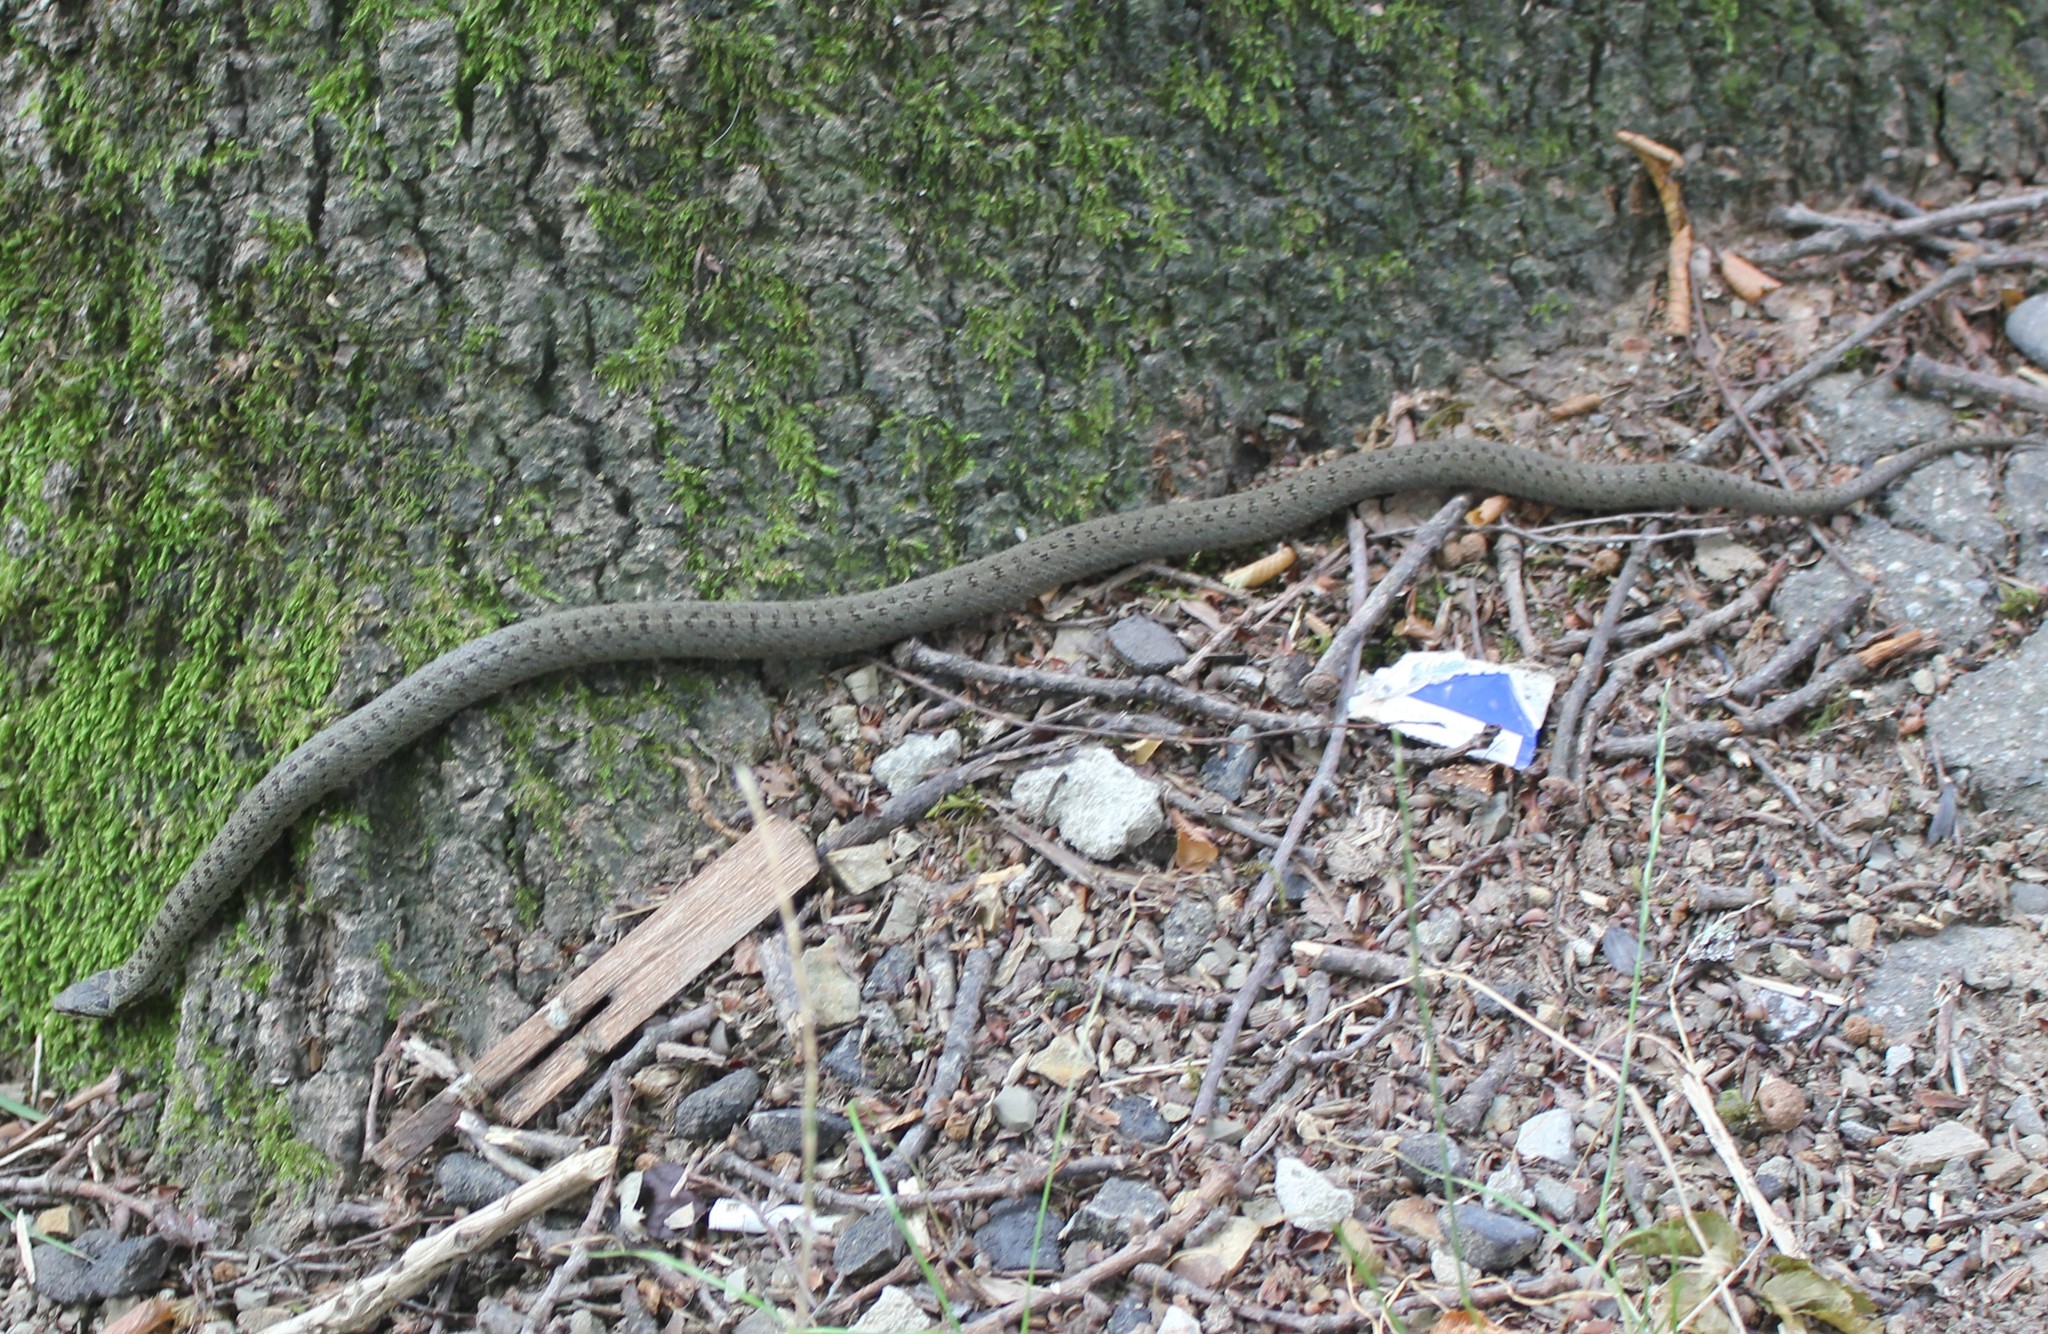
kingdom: Animalia
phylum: Chordata
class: Squamata
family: Colubridae
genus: Coronella
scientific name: Coronella austriaca
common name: Smooth snake
